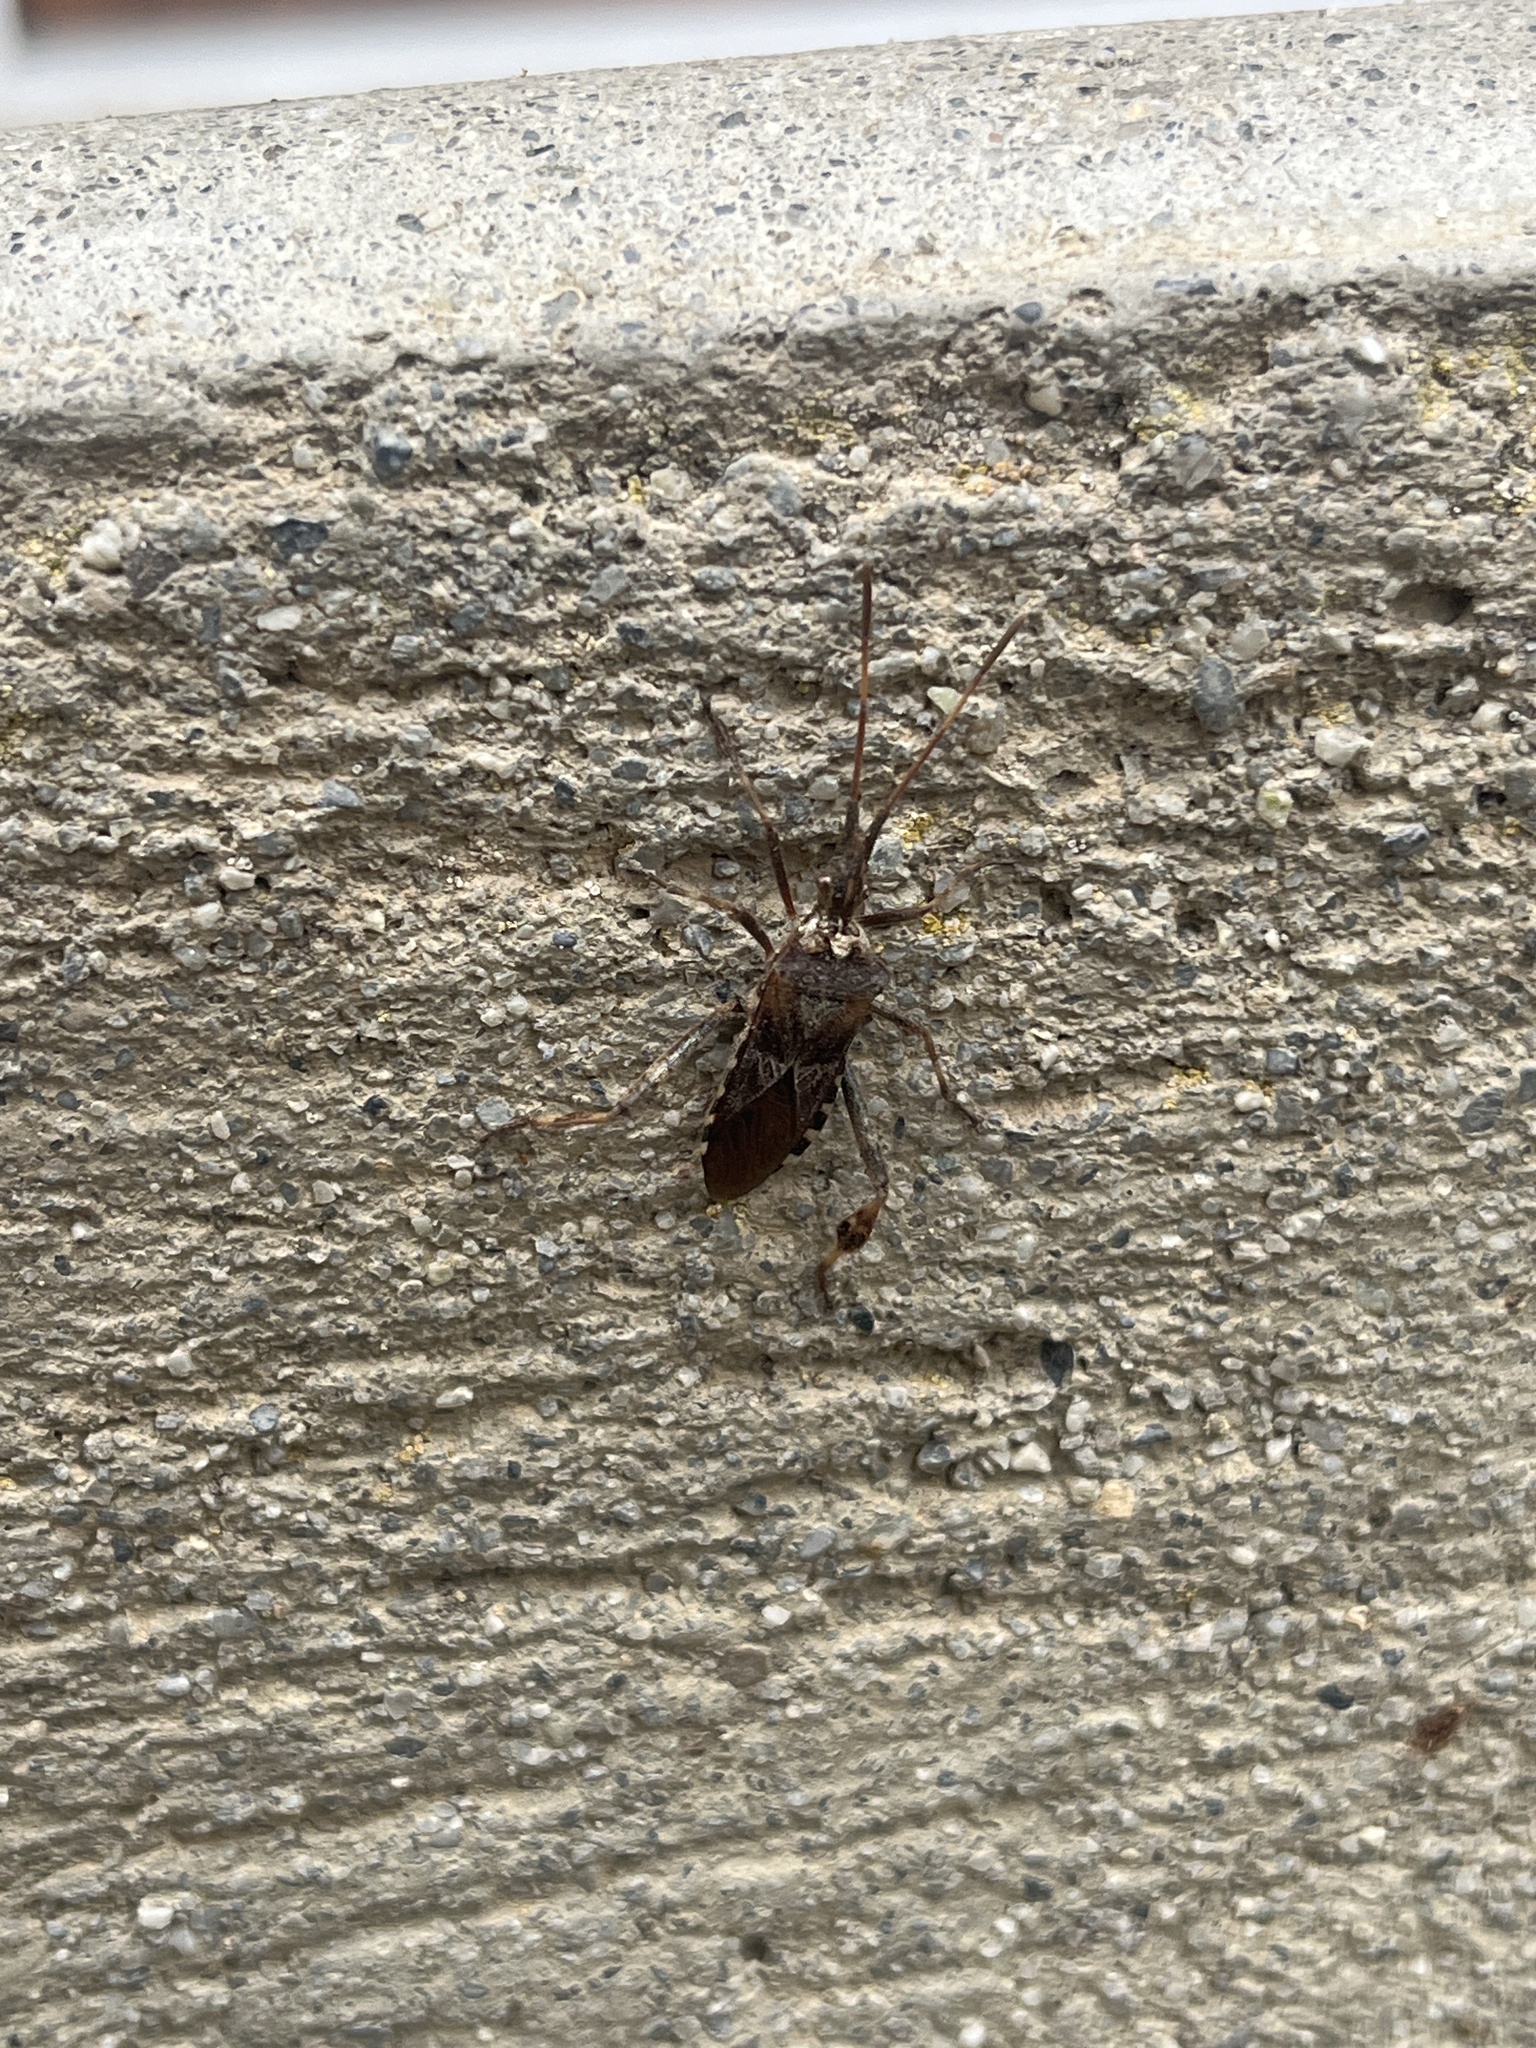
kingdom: Animalia
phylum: Arthropoda
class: Insecta
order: Hemiptera
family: Coreidae
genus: Leptoglossus
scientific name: Leptoglossus occidentalis
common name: Western conifer-seed bug
